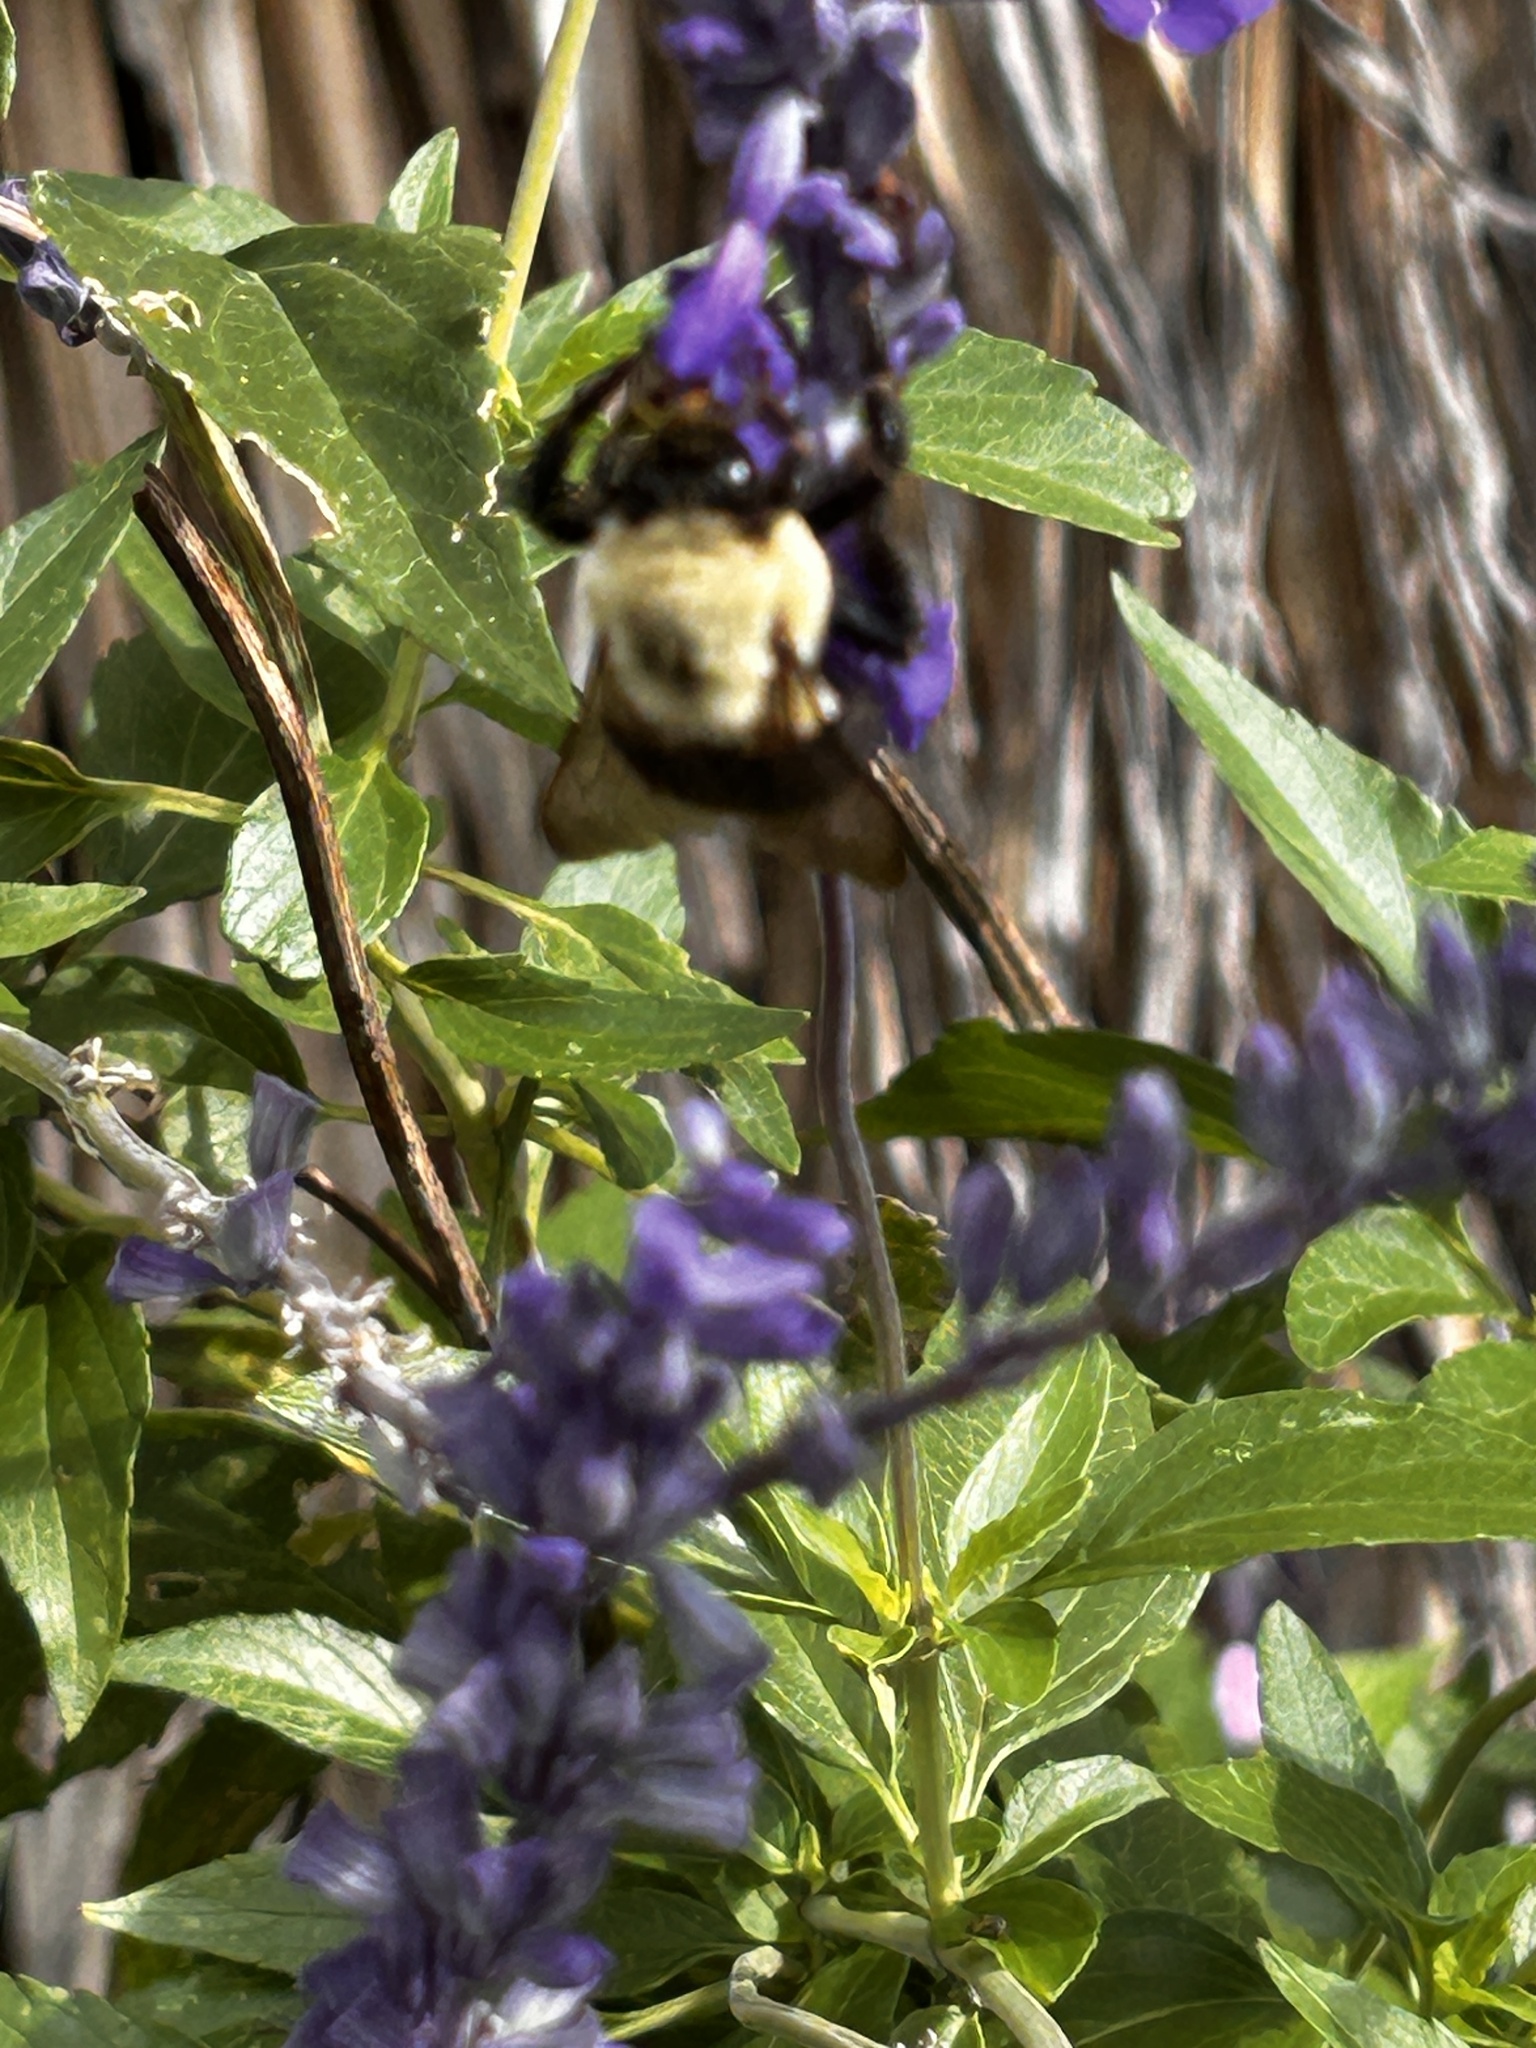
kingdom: Animalia
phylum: Arthropoda
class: Insecta
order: Hymenoptera
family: Apidae
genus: Bombus
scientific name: Bombus impatiens
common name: Common eastern bumble bee
